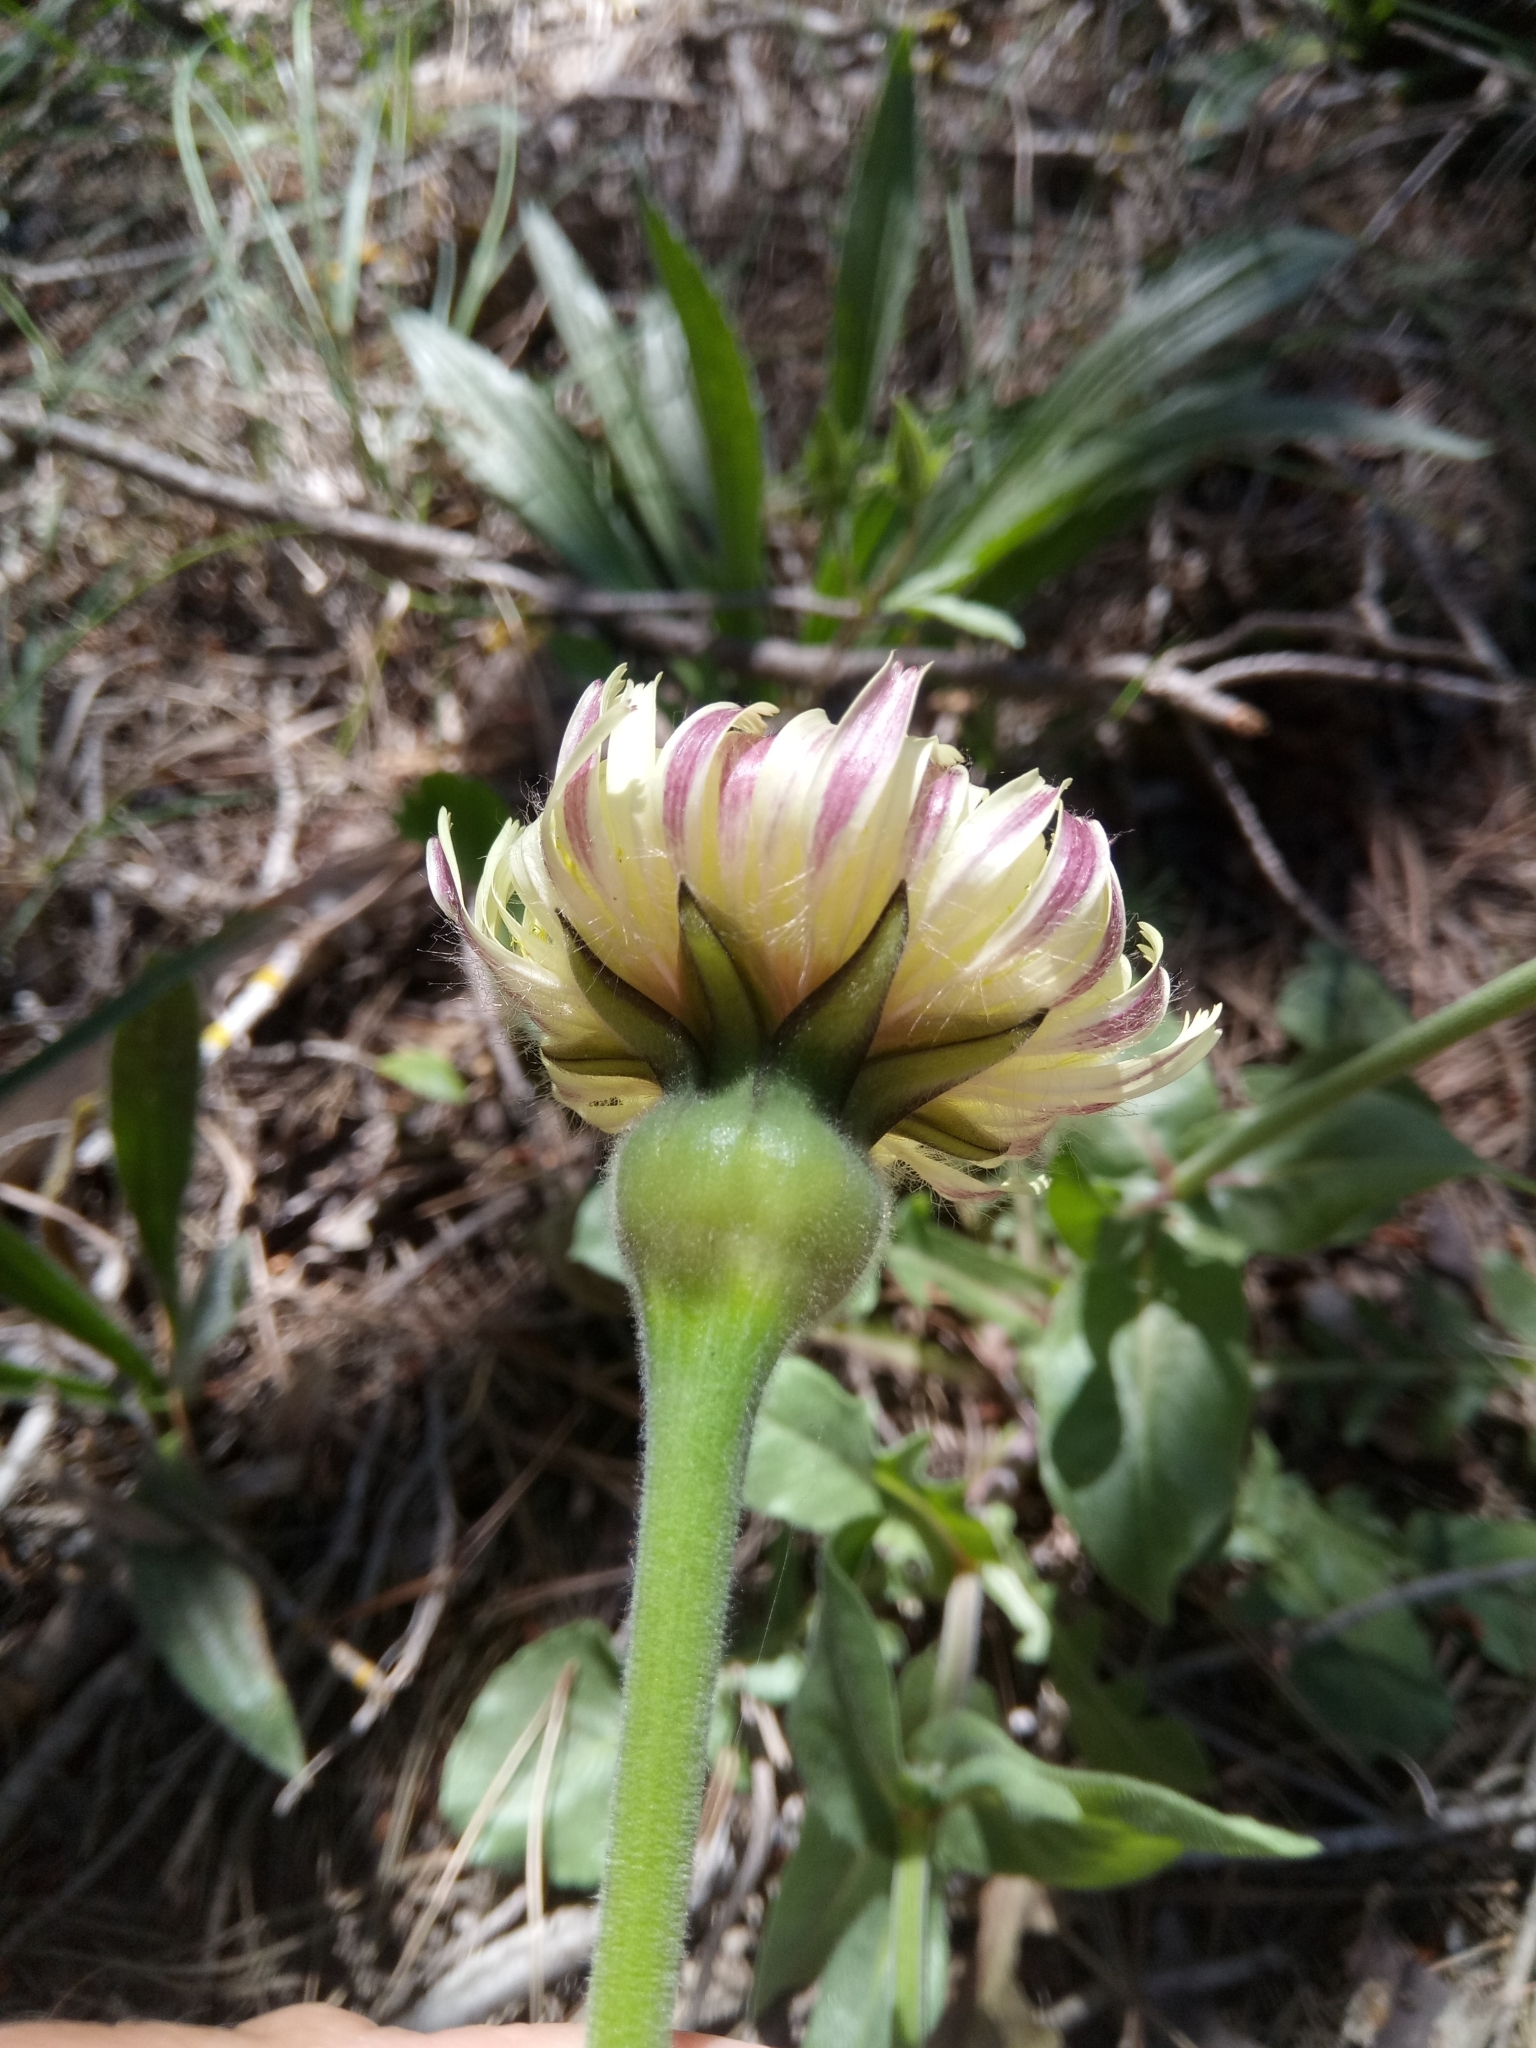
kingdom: Plantae
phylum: Tracheophyta
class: Magnoliopsida
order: Asterales
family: Asteraceae
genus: Urospermum
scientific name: Urospermum dalechampii
